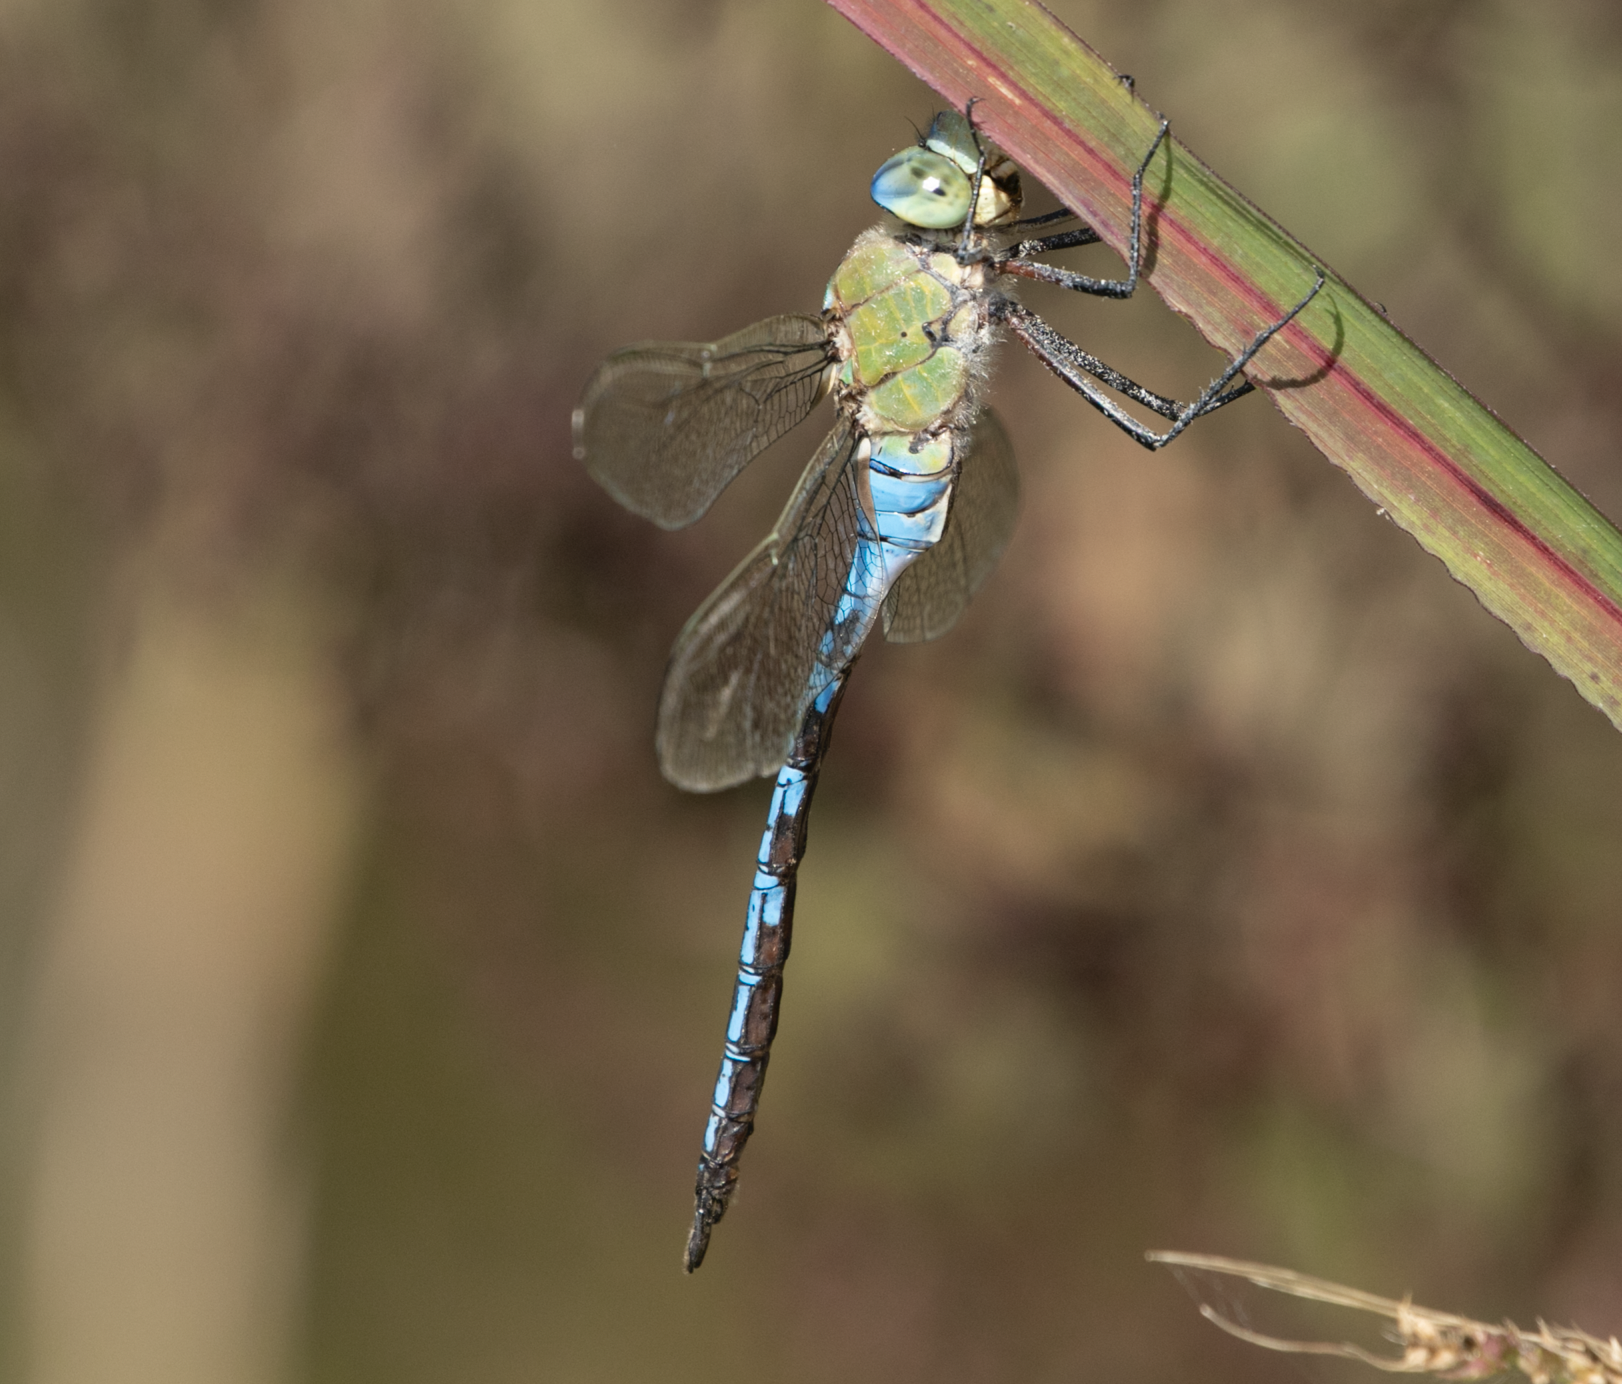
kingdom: Animalia
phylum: Arthropoda
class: Insecta
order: Odonata
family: Aeshnidae
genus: Anax
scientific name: Anax imperator
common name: Emperor dragonfly
